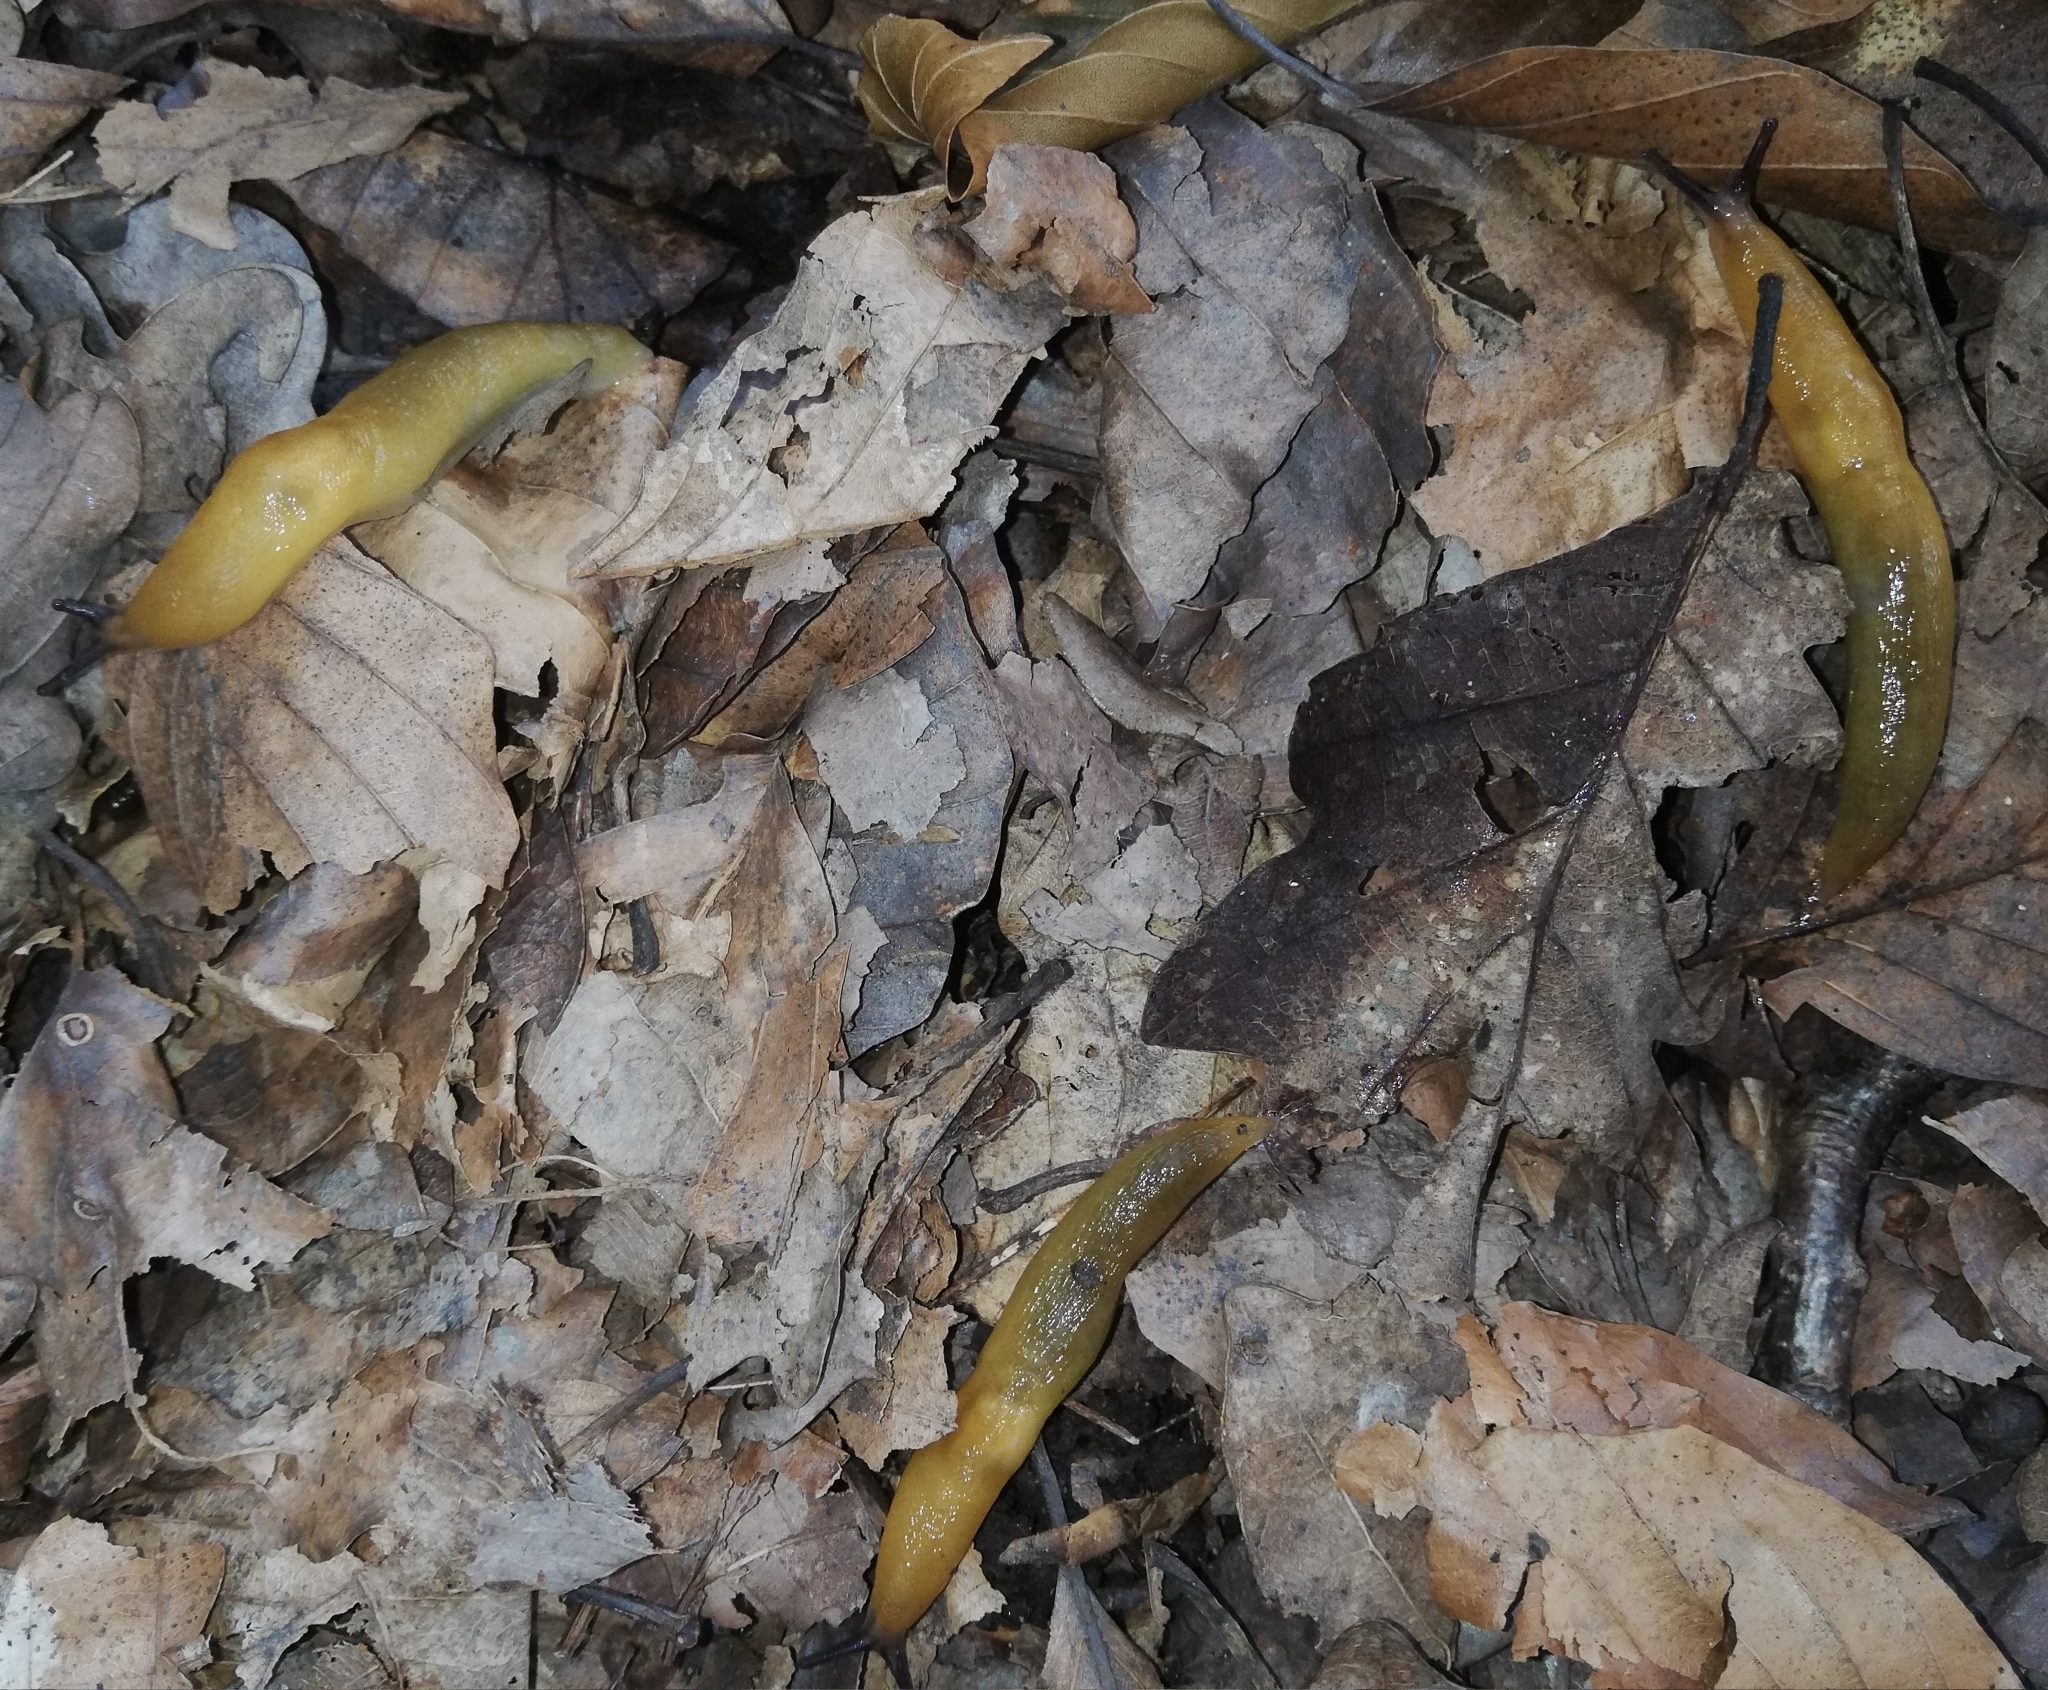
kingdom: Animalia
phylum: Mollusca
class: Gastropoda
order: Stylommatophora
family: Limacidae
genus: Malacolimax
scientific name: Malacolimax tenellus
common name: Lemon slug
